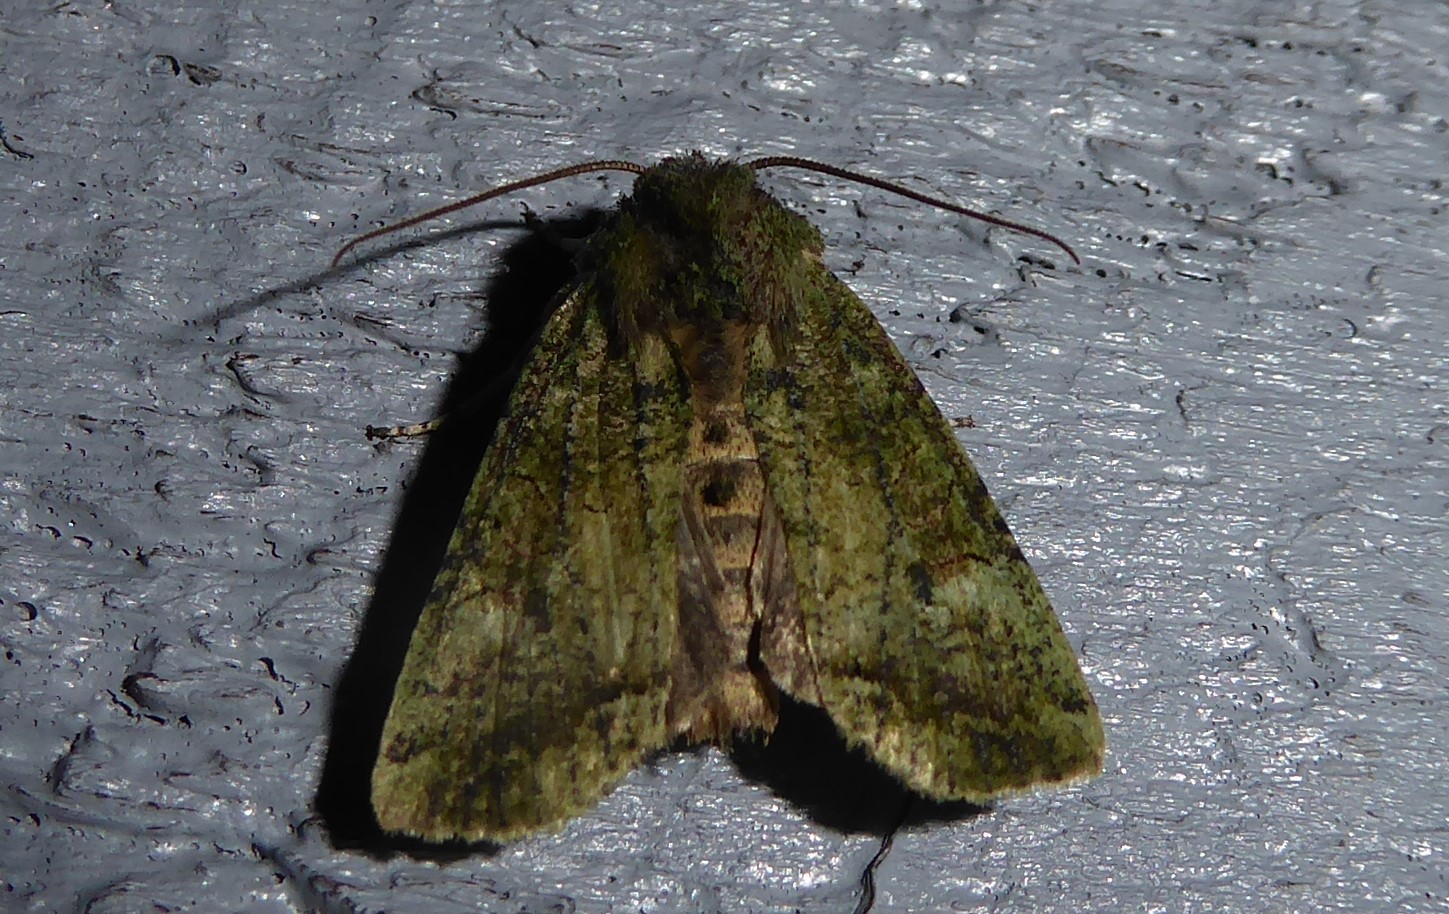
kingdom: Animalia
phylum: Arthropoda
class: Insecta
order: Lepidoptera
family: Noctuidae
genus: Meterana
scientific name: Meterana levis
